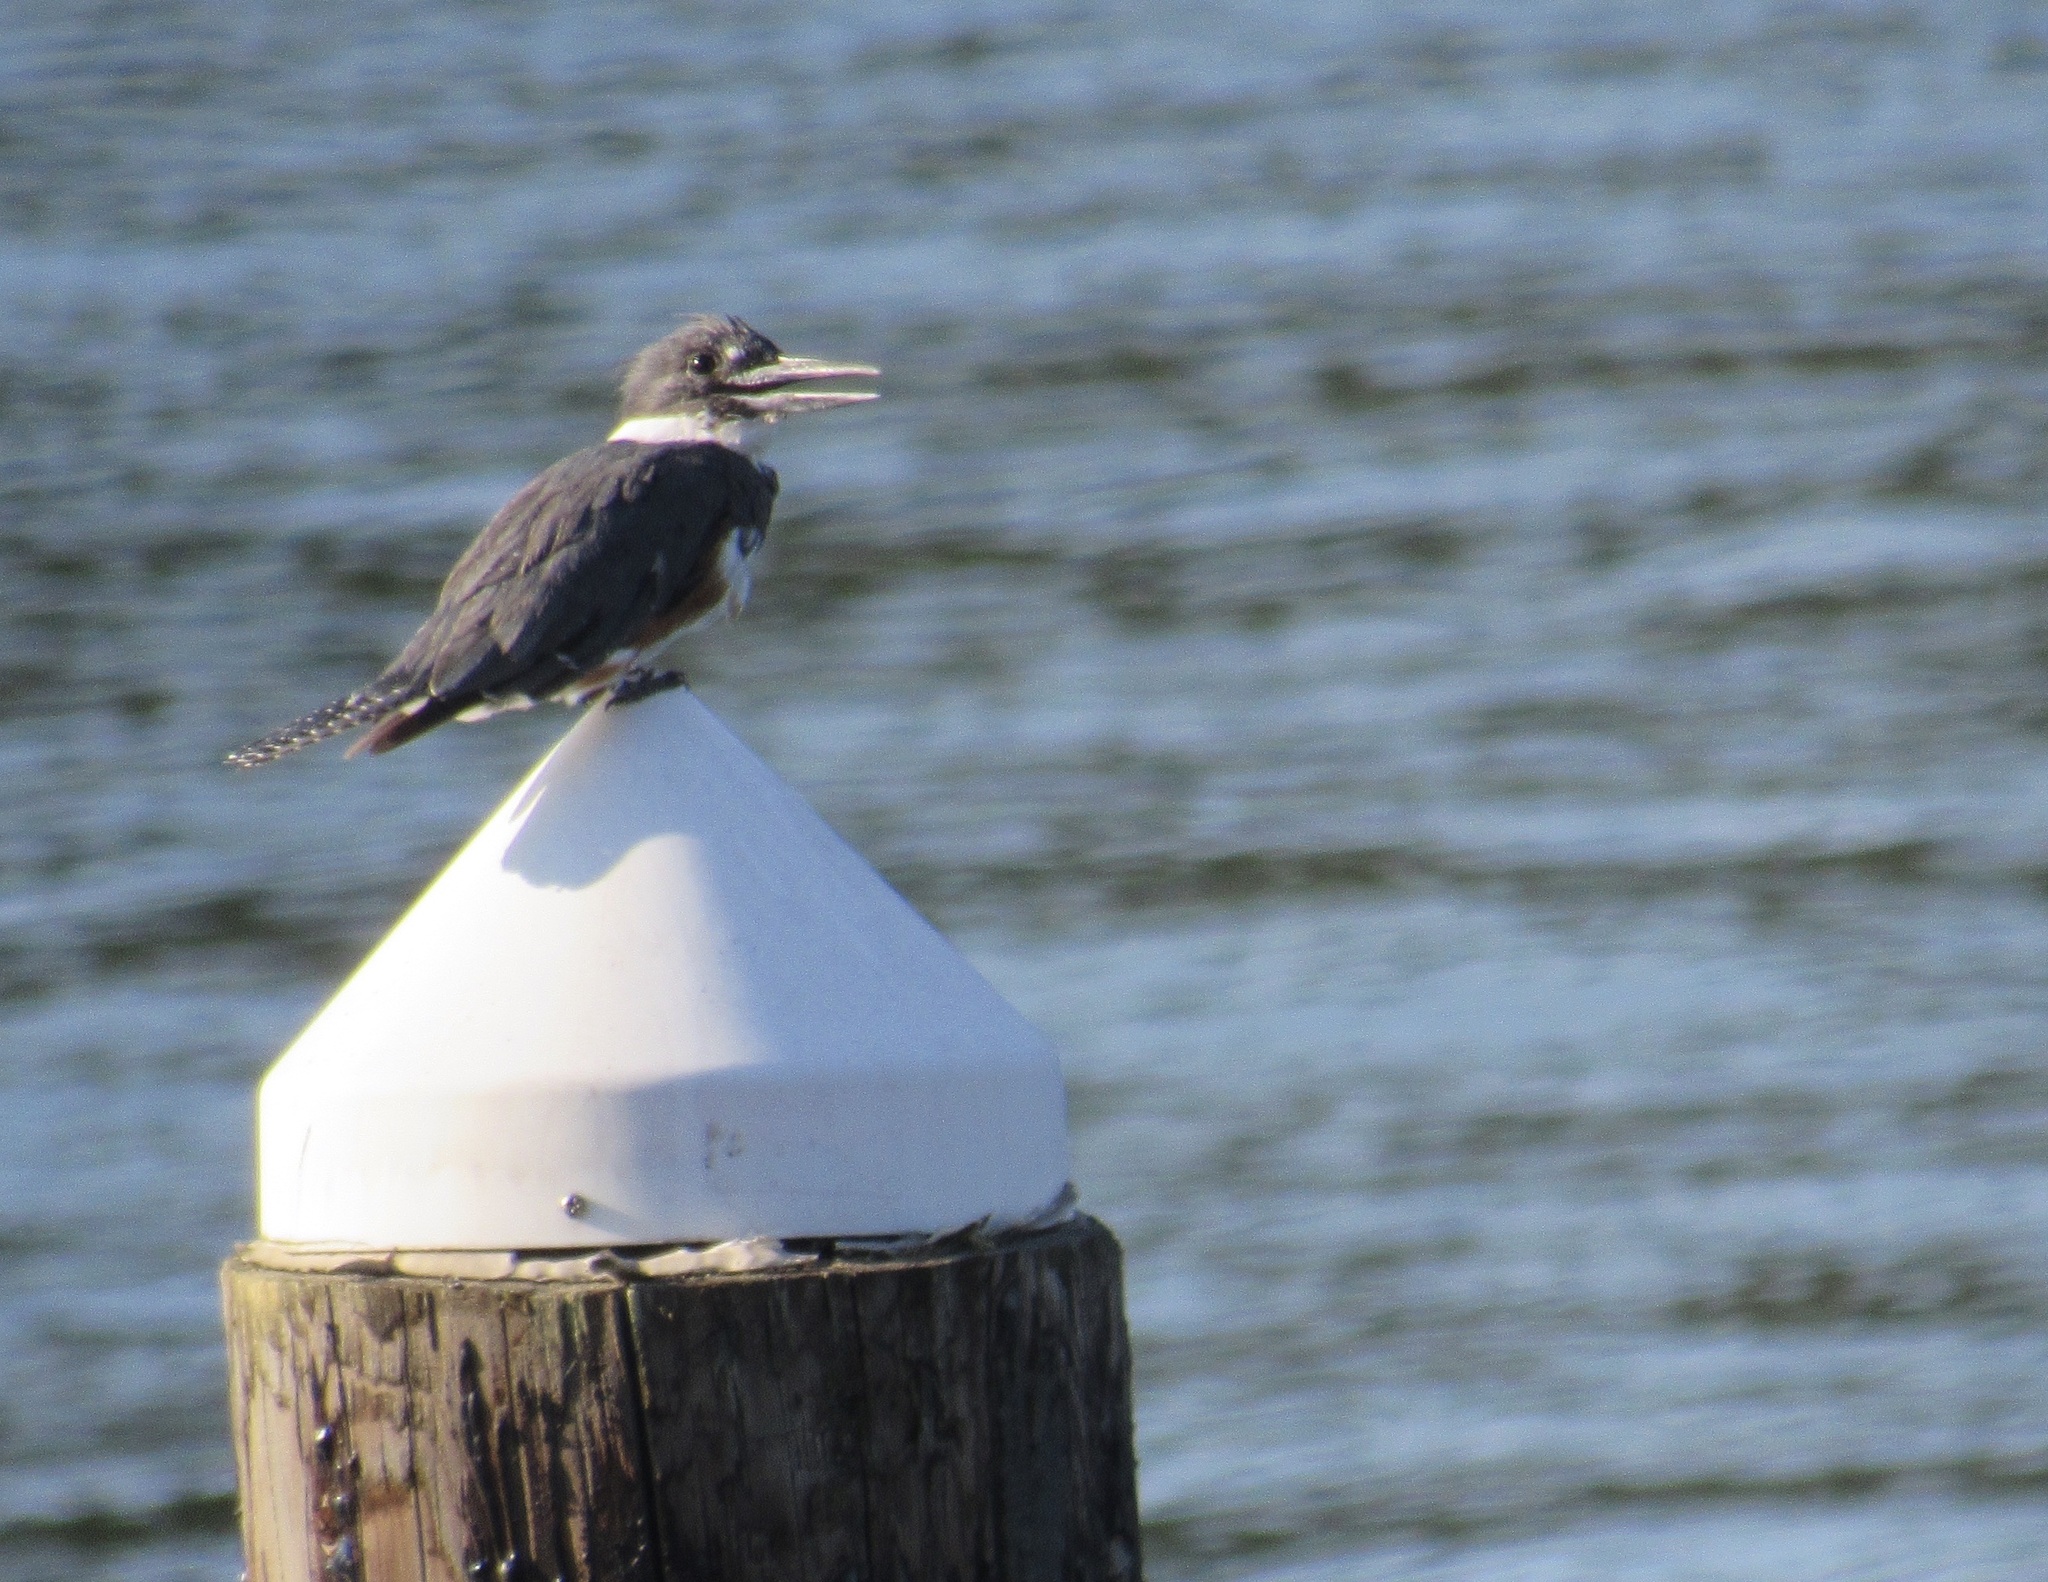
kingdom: Animalia
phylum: Chordata
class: Aves
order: Coraciiformes
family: Alcedinidae
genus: Megaceryle
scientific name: Megaceryle alcyon
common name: Belted kingfisher
